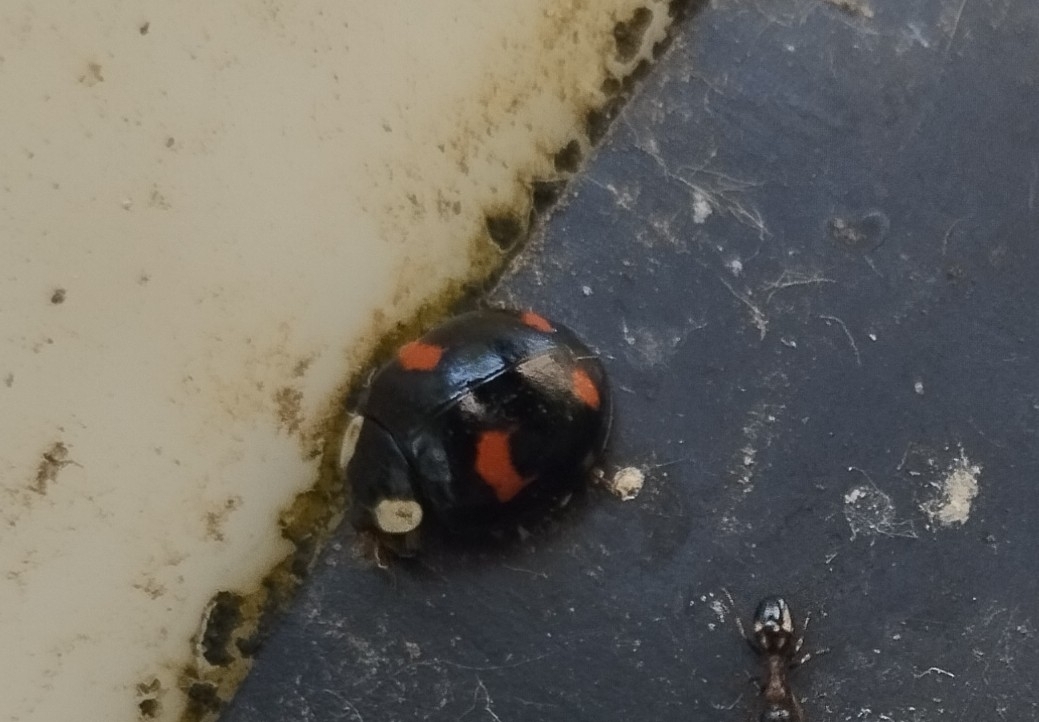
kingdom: Animalia
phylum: Arthropoda
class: Insecta
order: Coleoptera
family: Coccinellidae
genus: Harmonia
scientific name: Harmonia axyridis
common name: Harlequin ladybird
